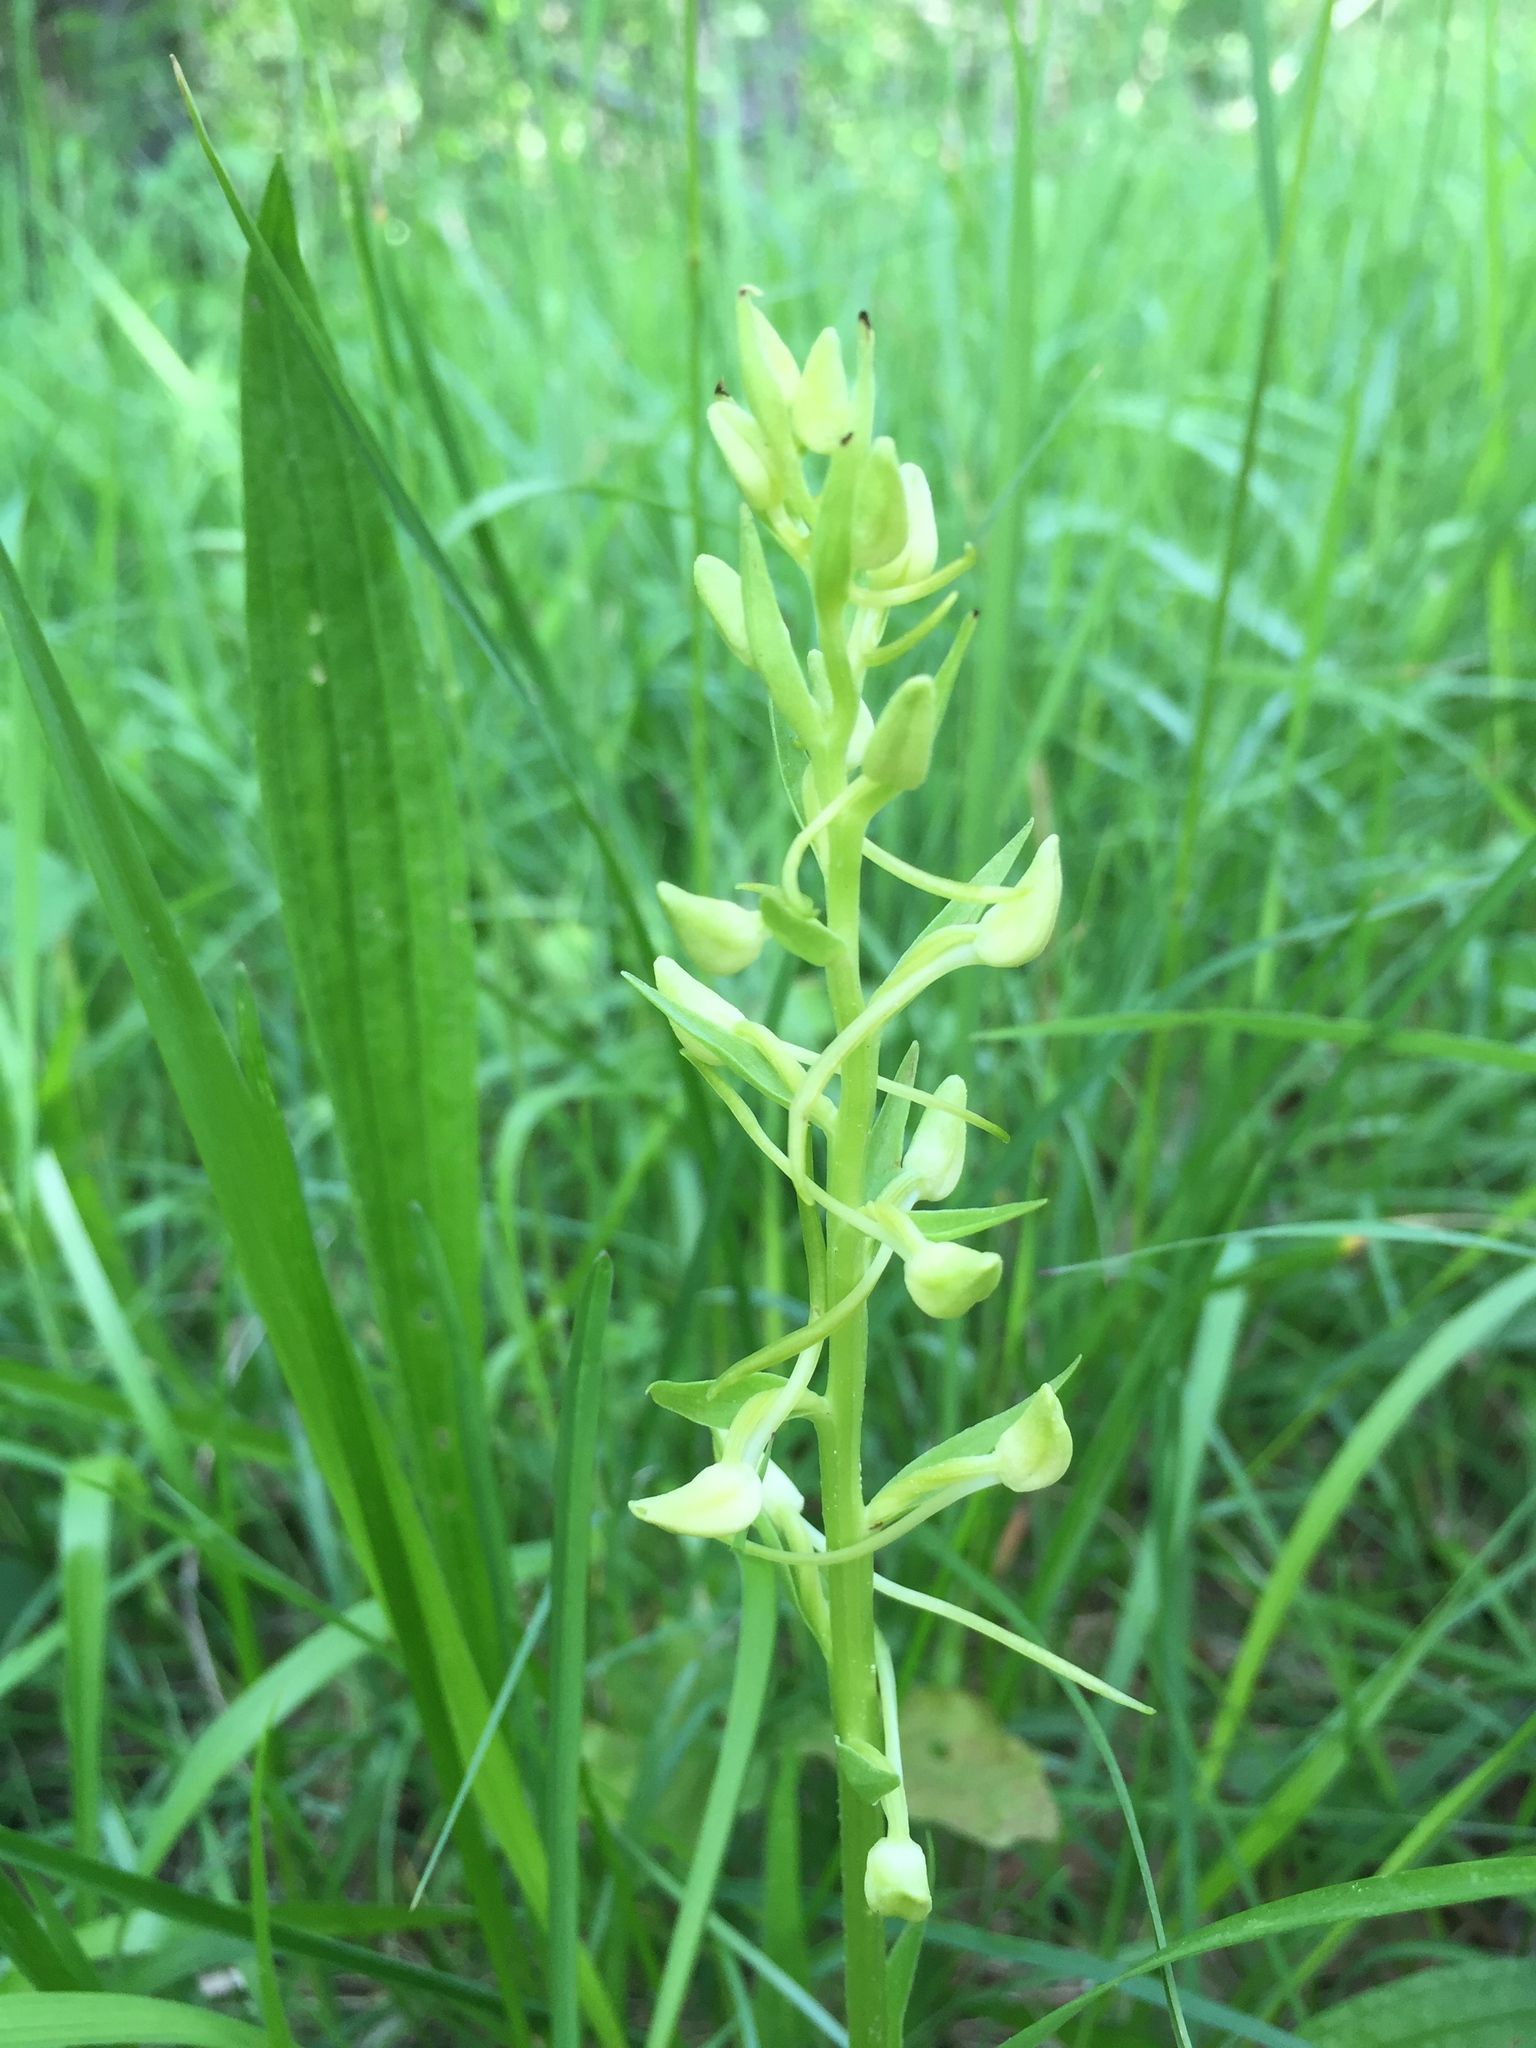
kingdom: Plantae
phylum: Tracheophyta
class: Liliopsida
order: Asparagales
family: Orchidaceae
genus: Platanthera
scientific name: Platanthera bifolia
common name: Lesser butterfly-orchid
